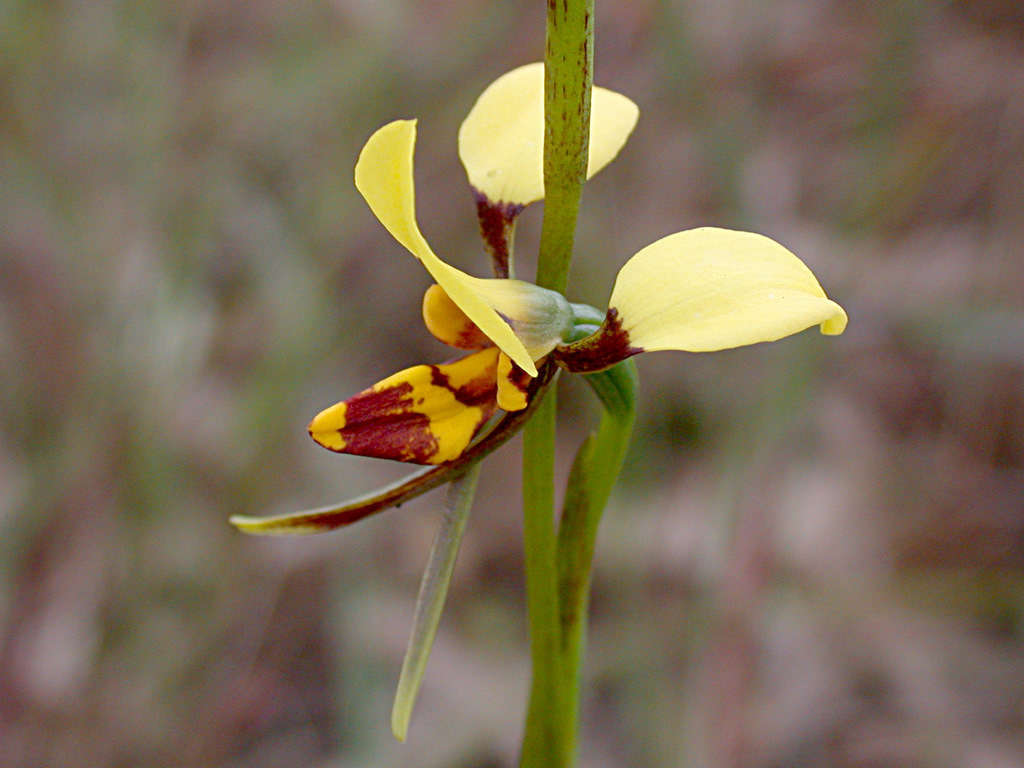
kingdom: Plantae
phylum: Tracheophyta
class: Liliopsida
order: Asparagales
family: Orchidaceae
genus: Diuris
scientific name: Diuris sulphurea
